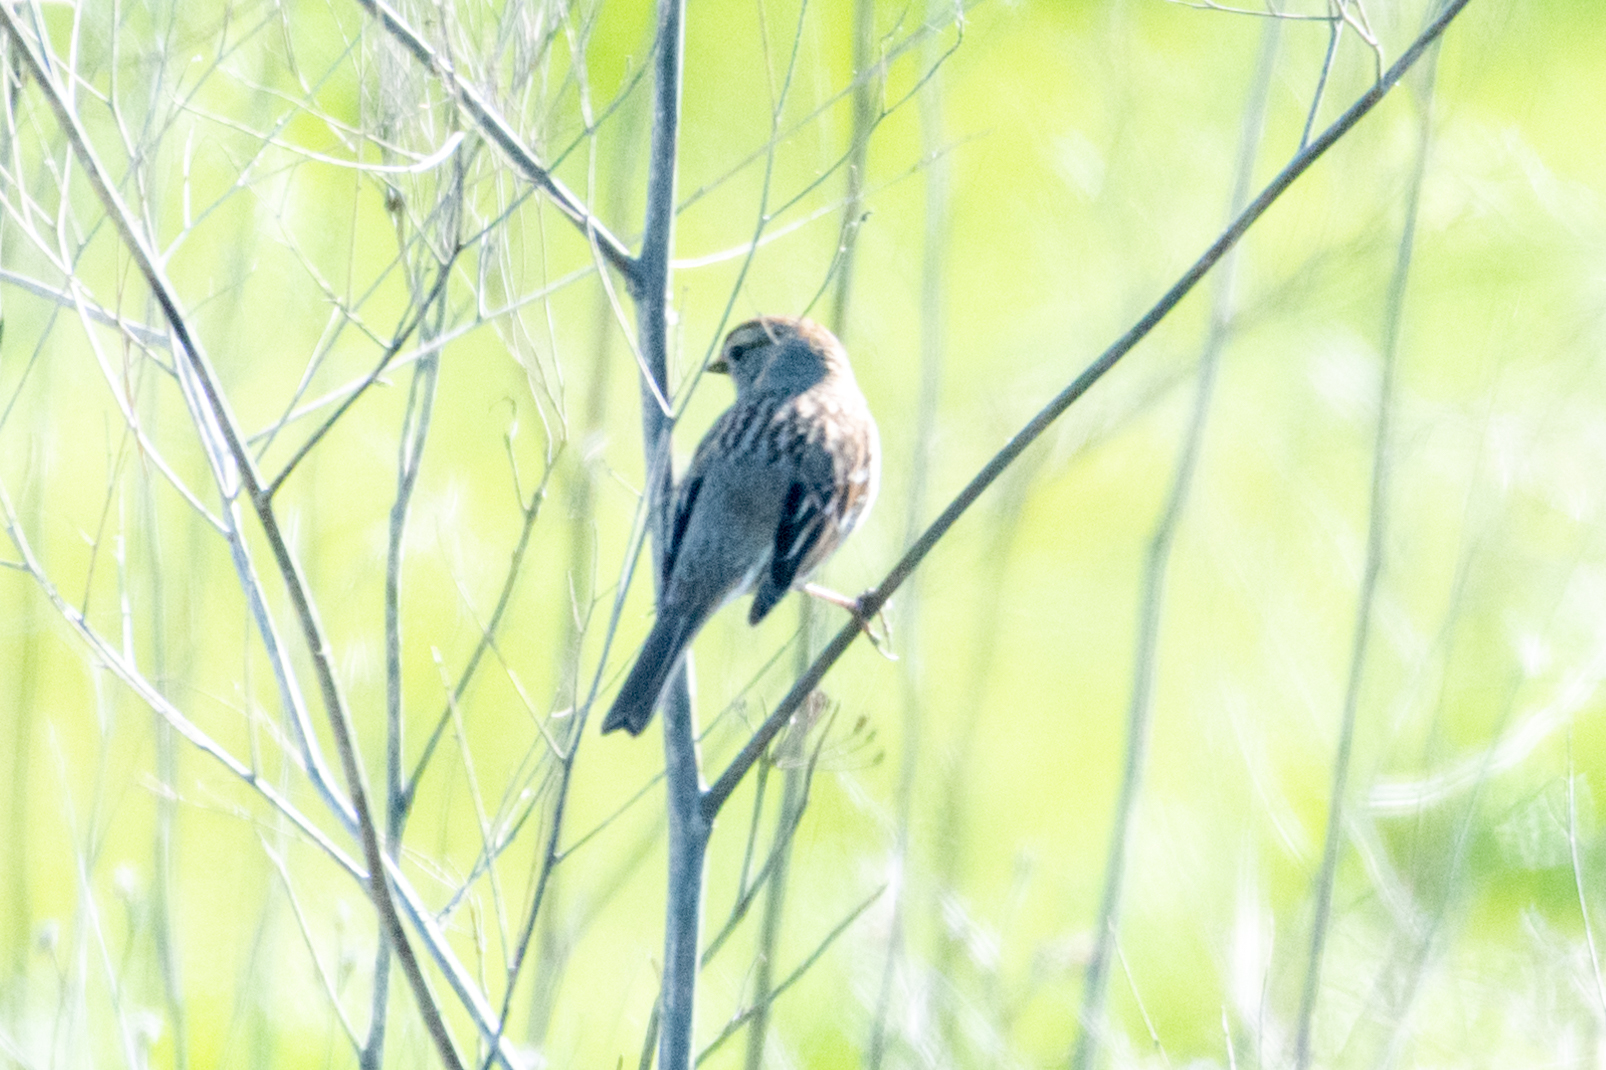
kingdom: Animalia
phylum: Chordata
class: Aves
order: Passeriformes
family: Passerellidae
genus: Zonotrichia
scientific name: Zonotrichia leucophrys
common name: White-crowned sparrow
